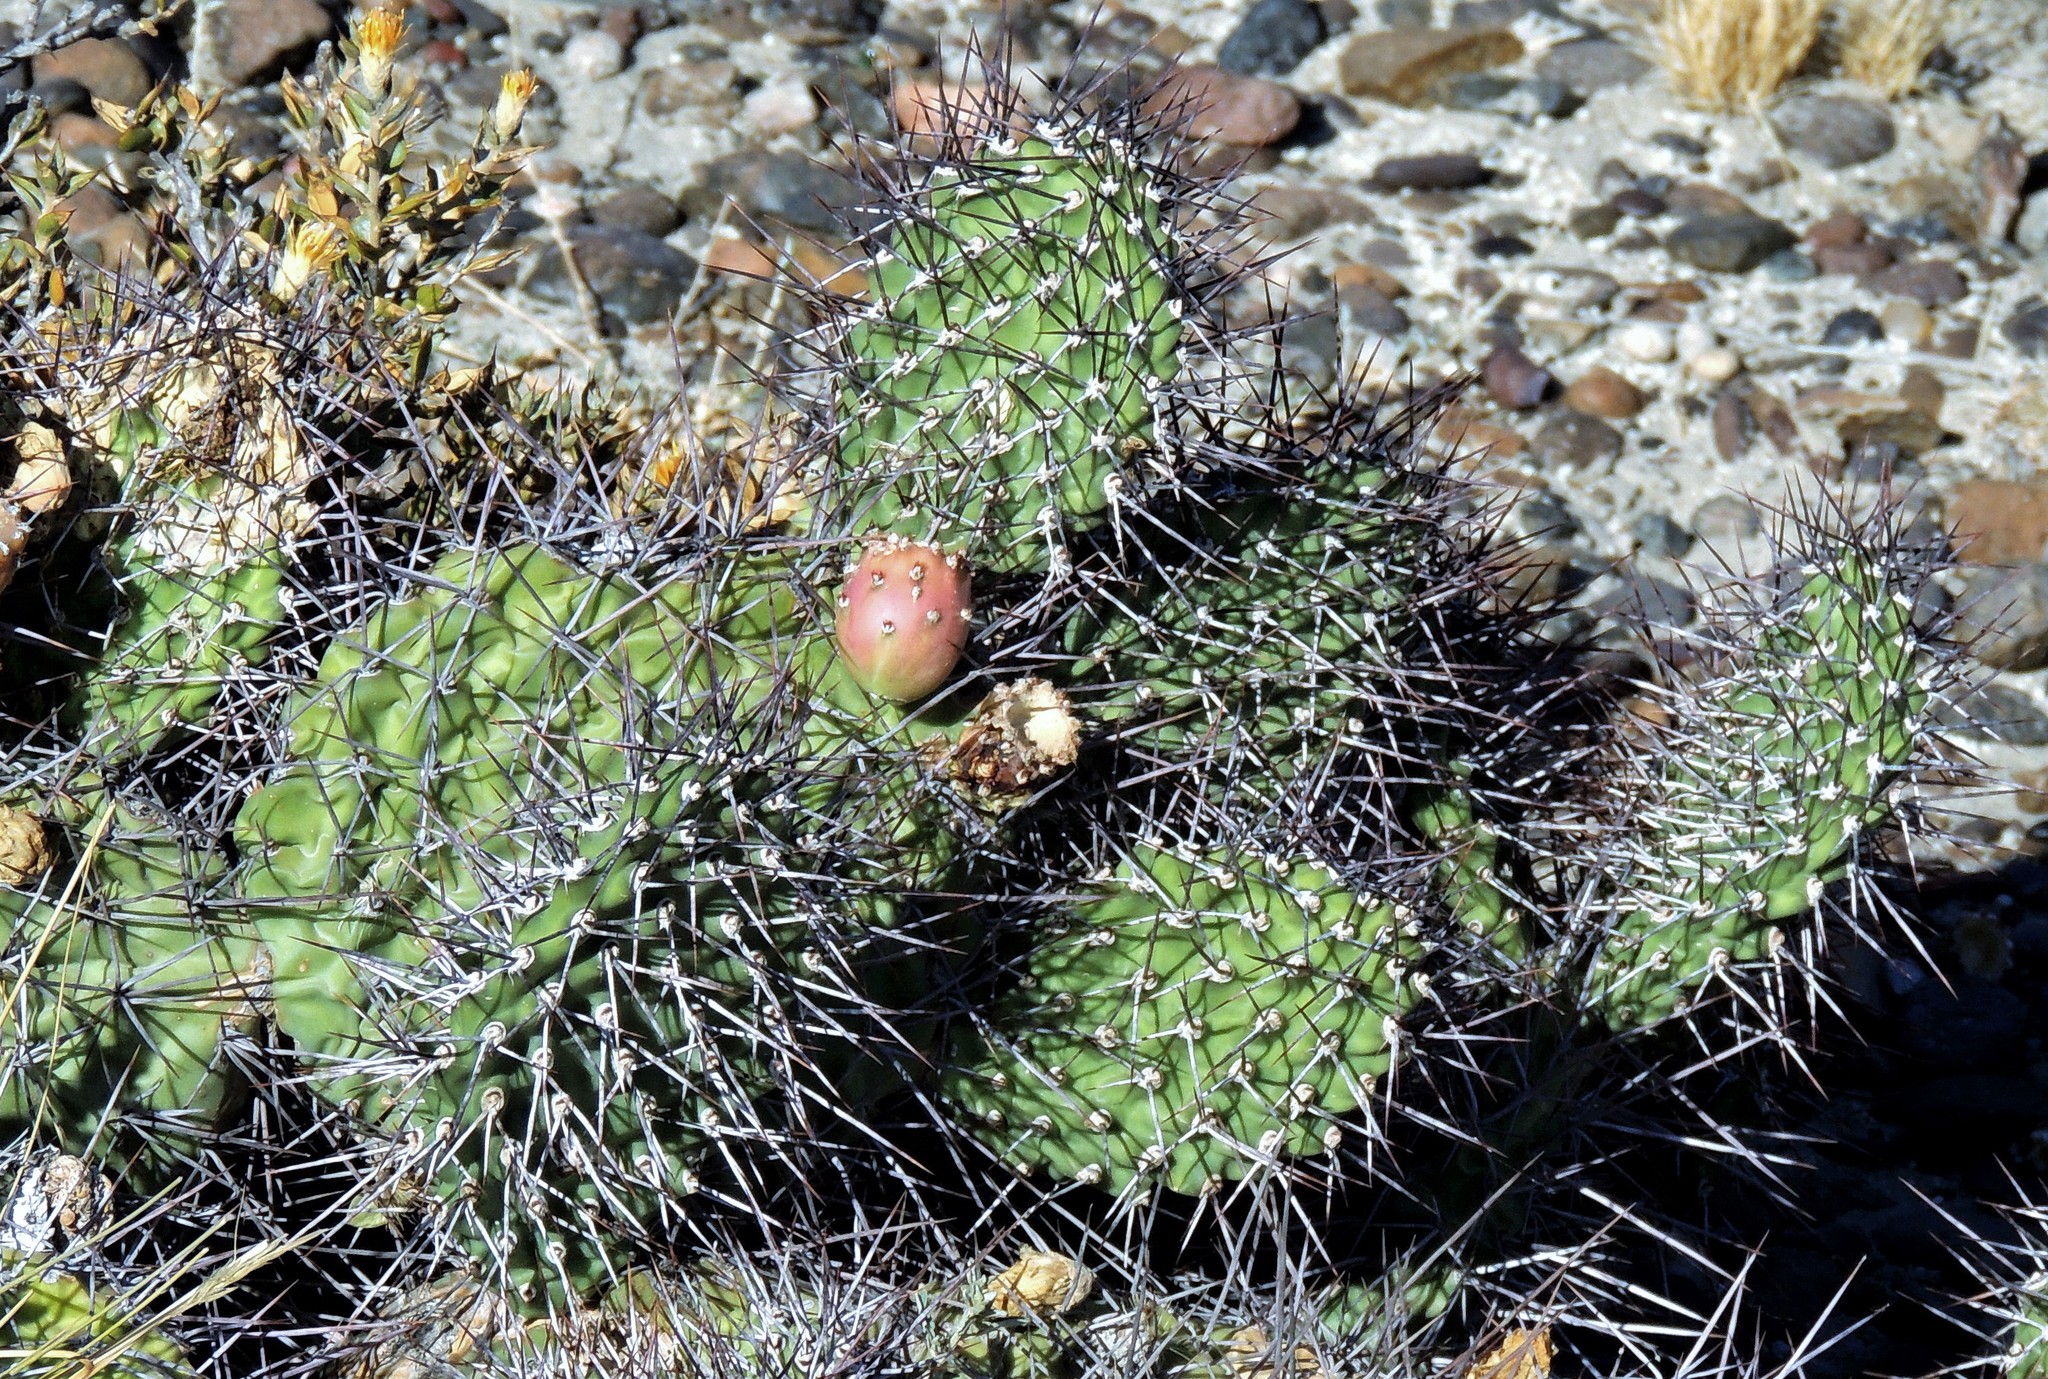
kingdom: Plantae
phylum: Tracheophyta
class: Magnoliopsida
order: Caryophyllales
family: Cactaceae
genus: Opuntia
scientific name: Opuntia sulphurea
